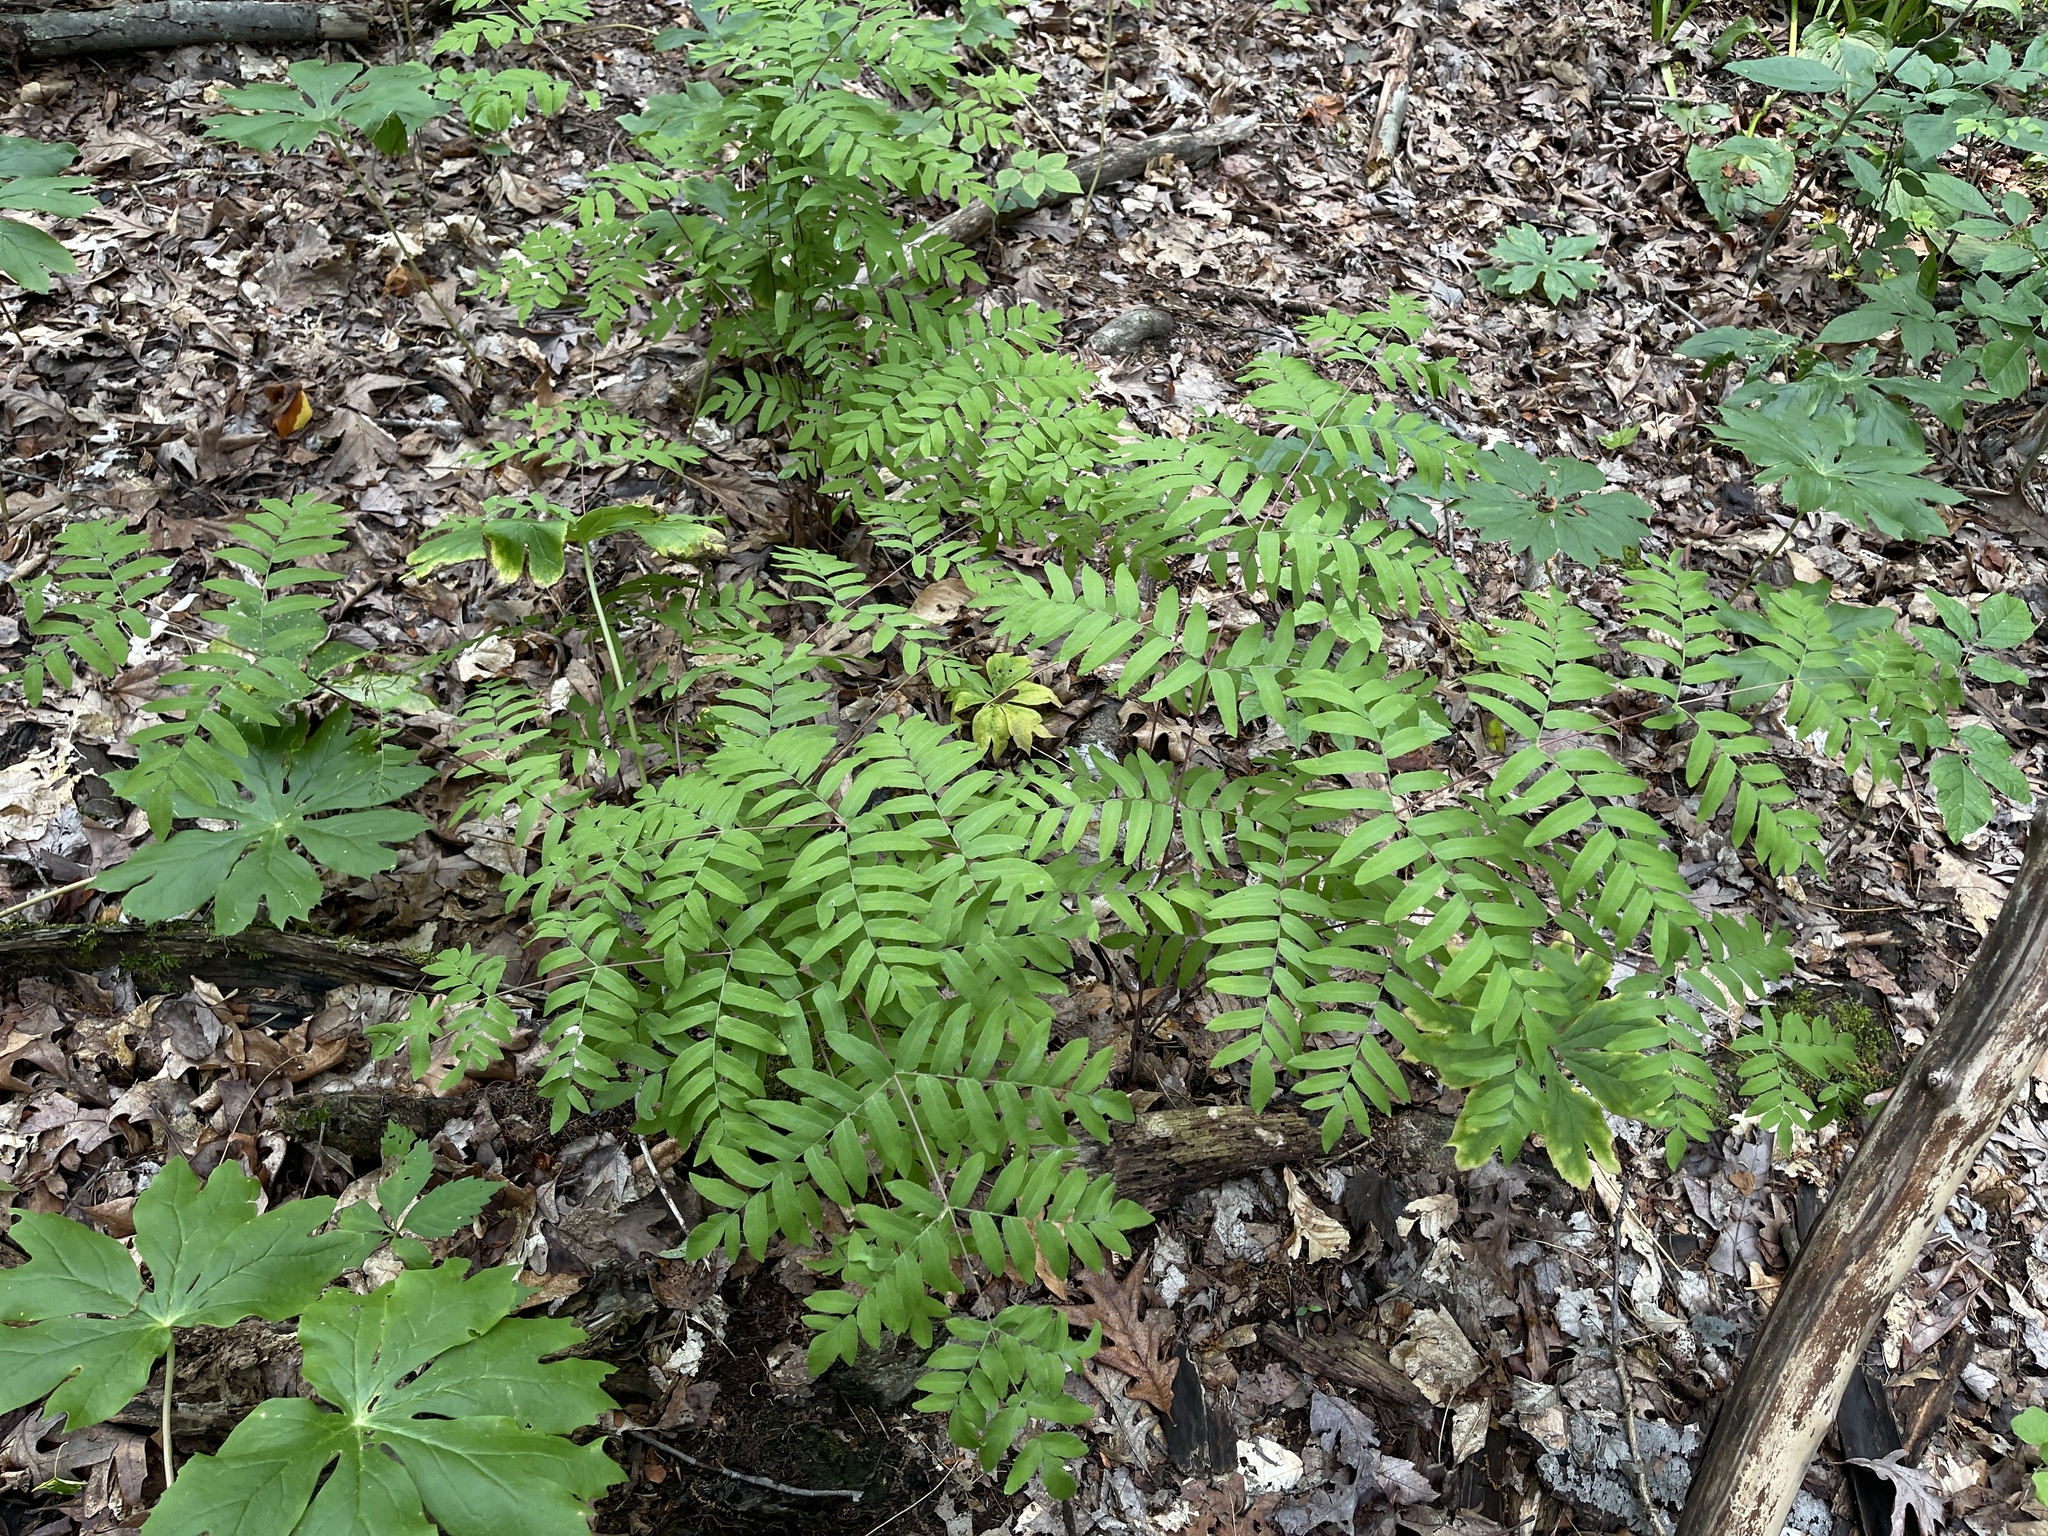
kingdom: Plantae
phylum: Tracheophyta
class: Polypodiopsida
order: Osmundales
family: Osmundaceae
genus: Osmunda
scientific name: Osmunda spectabilis
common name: American royal fern
